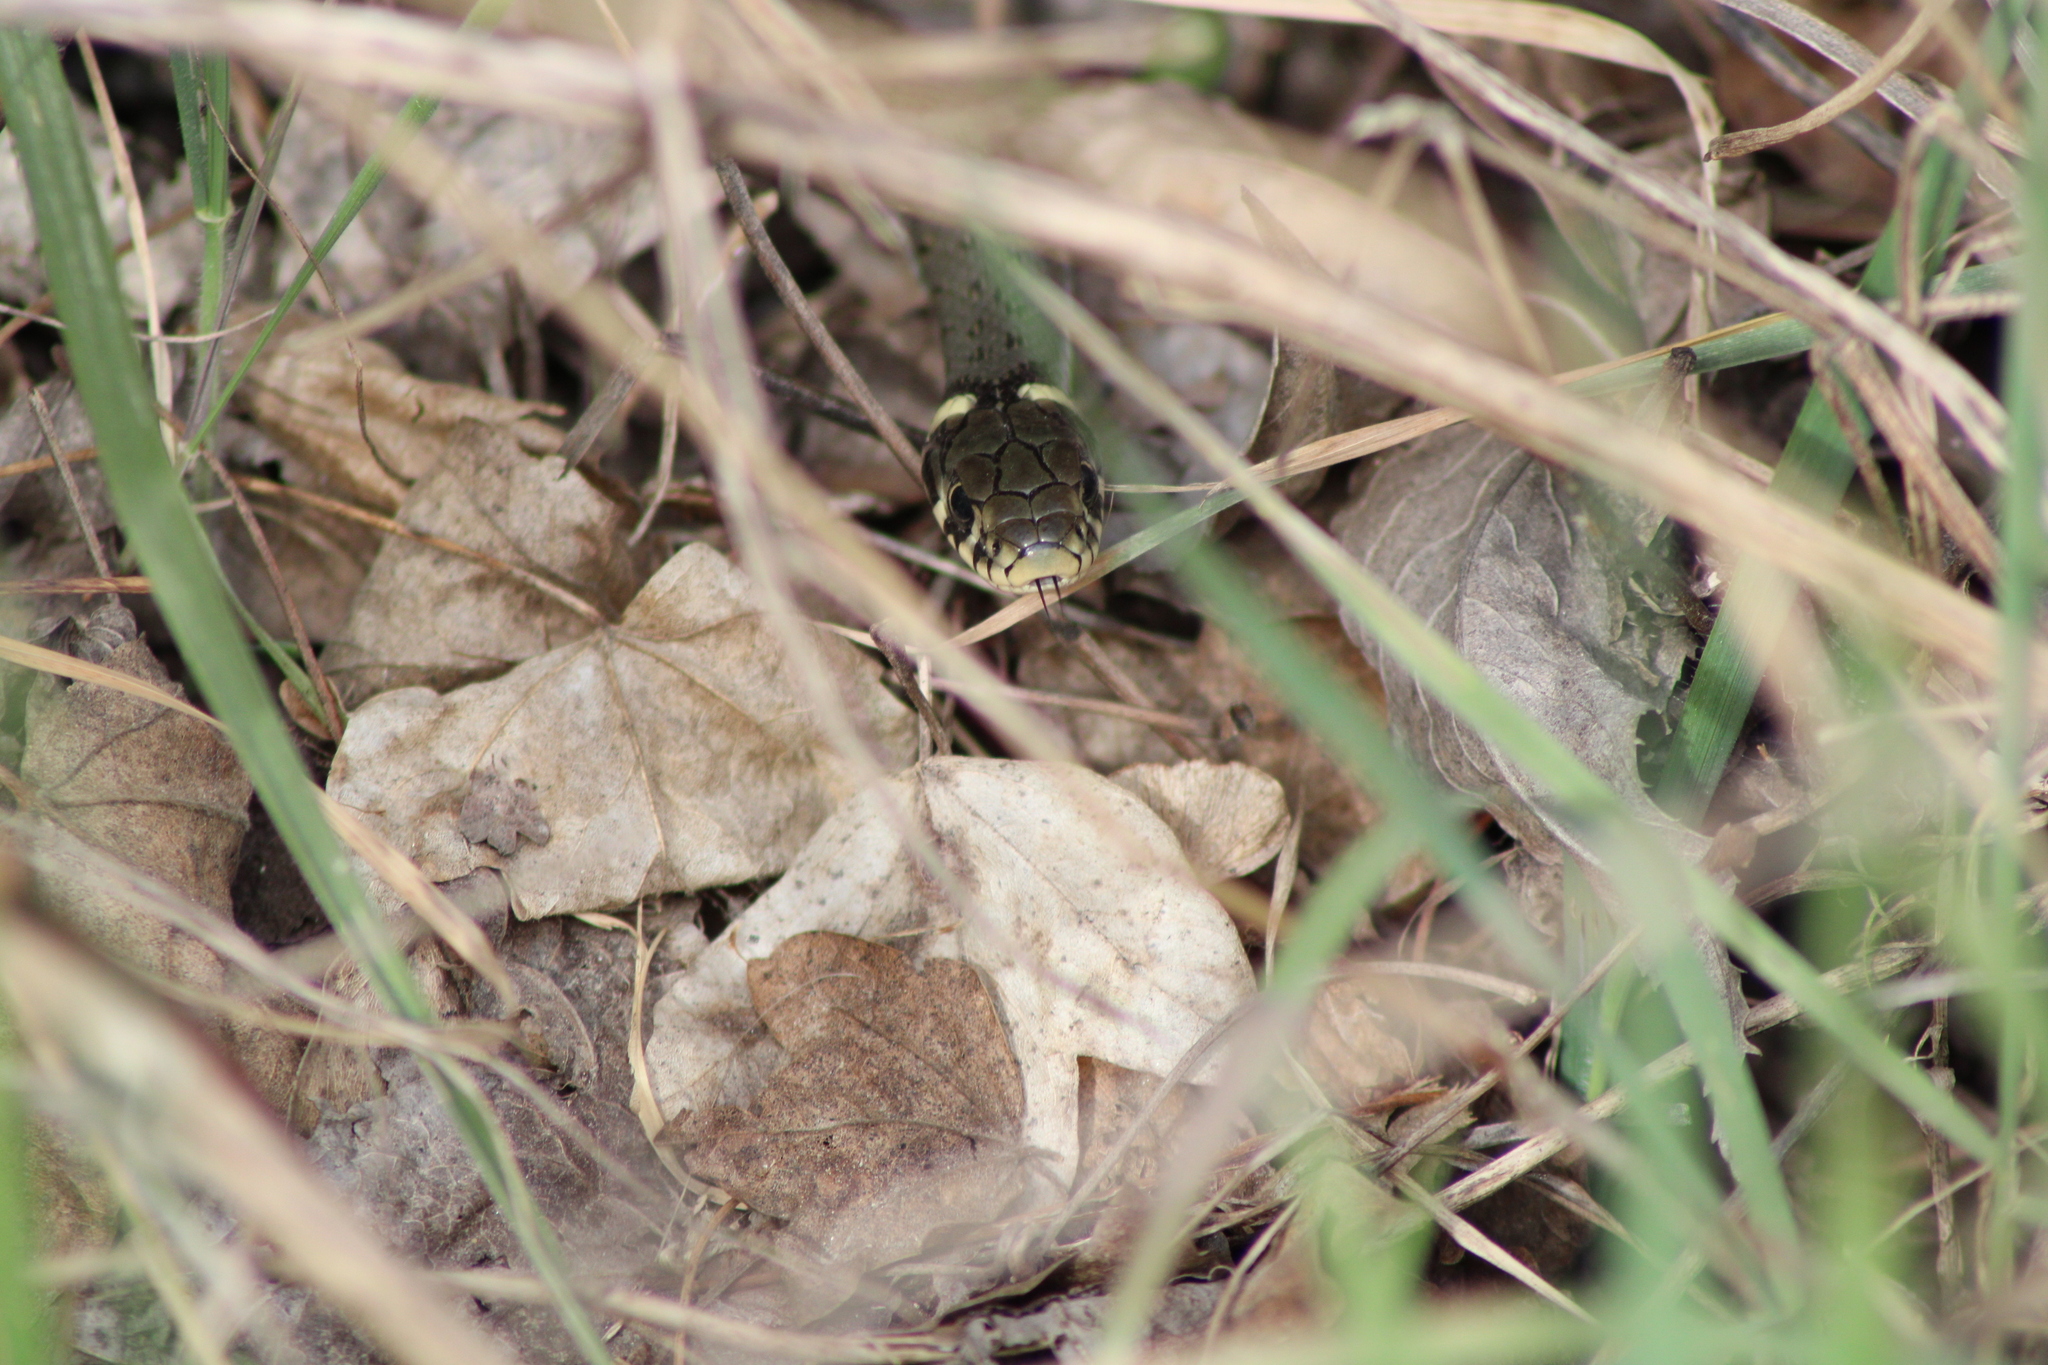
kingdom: Animalia
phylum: Chordata
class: Squamata
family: Colubridae
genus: Natrix
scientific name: Natrix natrix
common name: Grass snake
